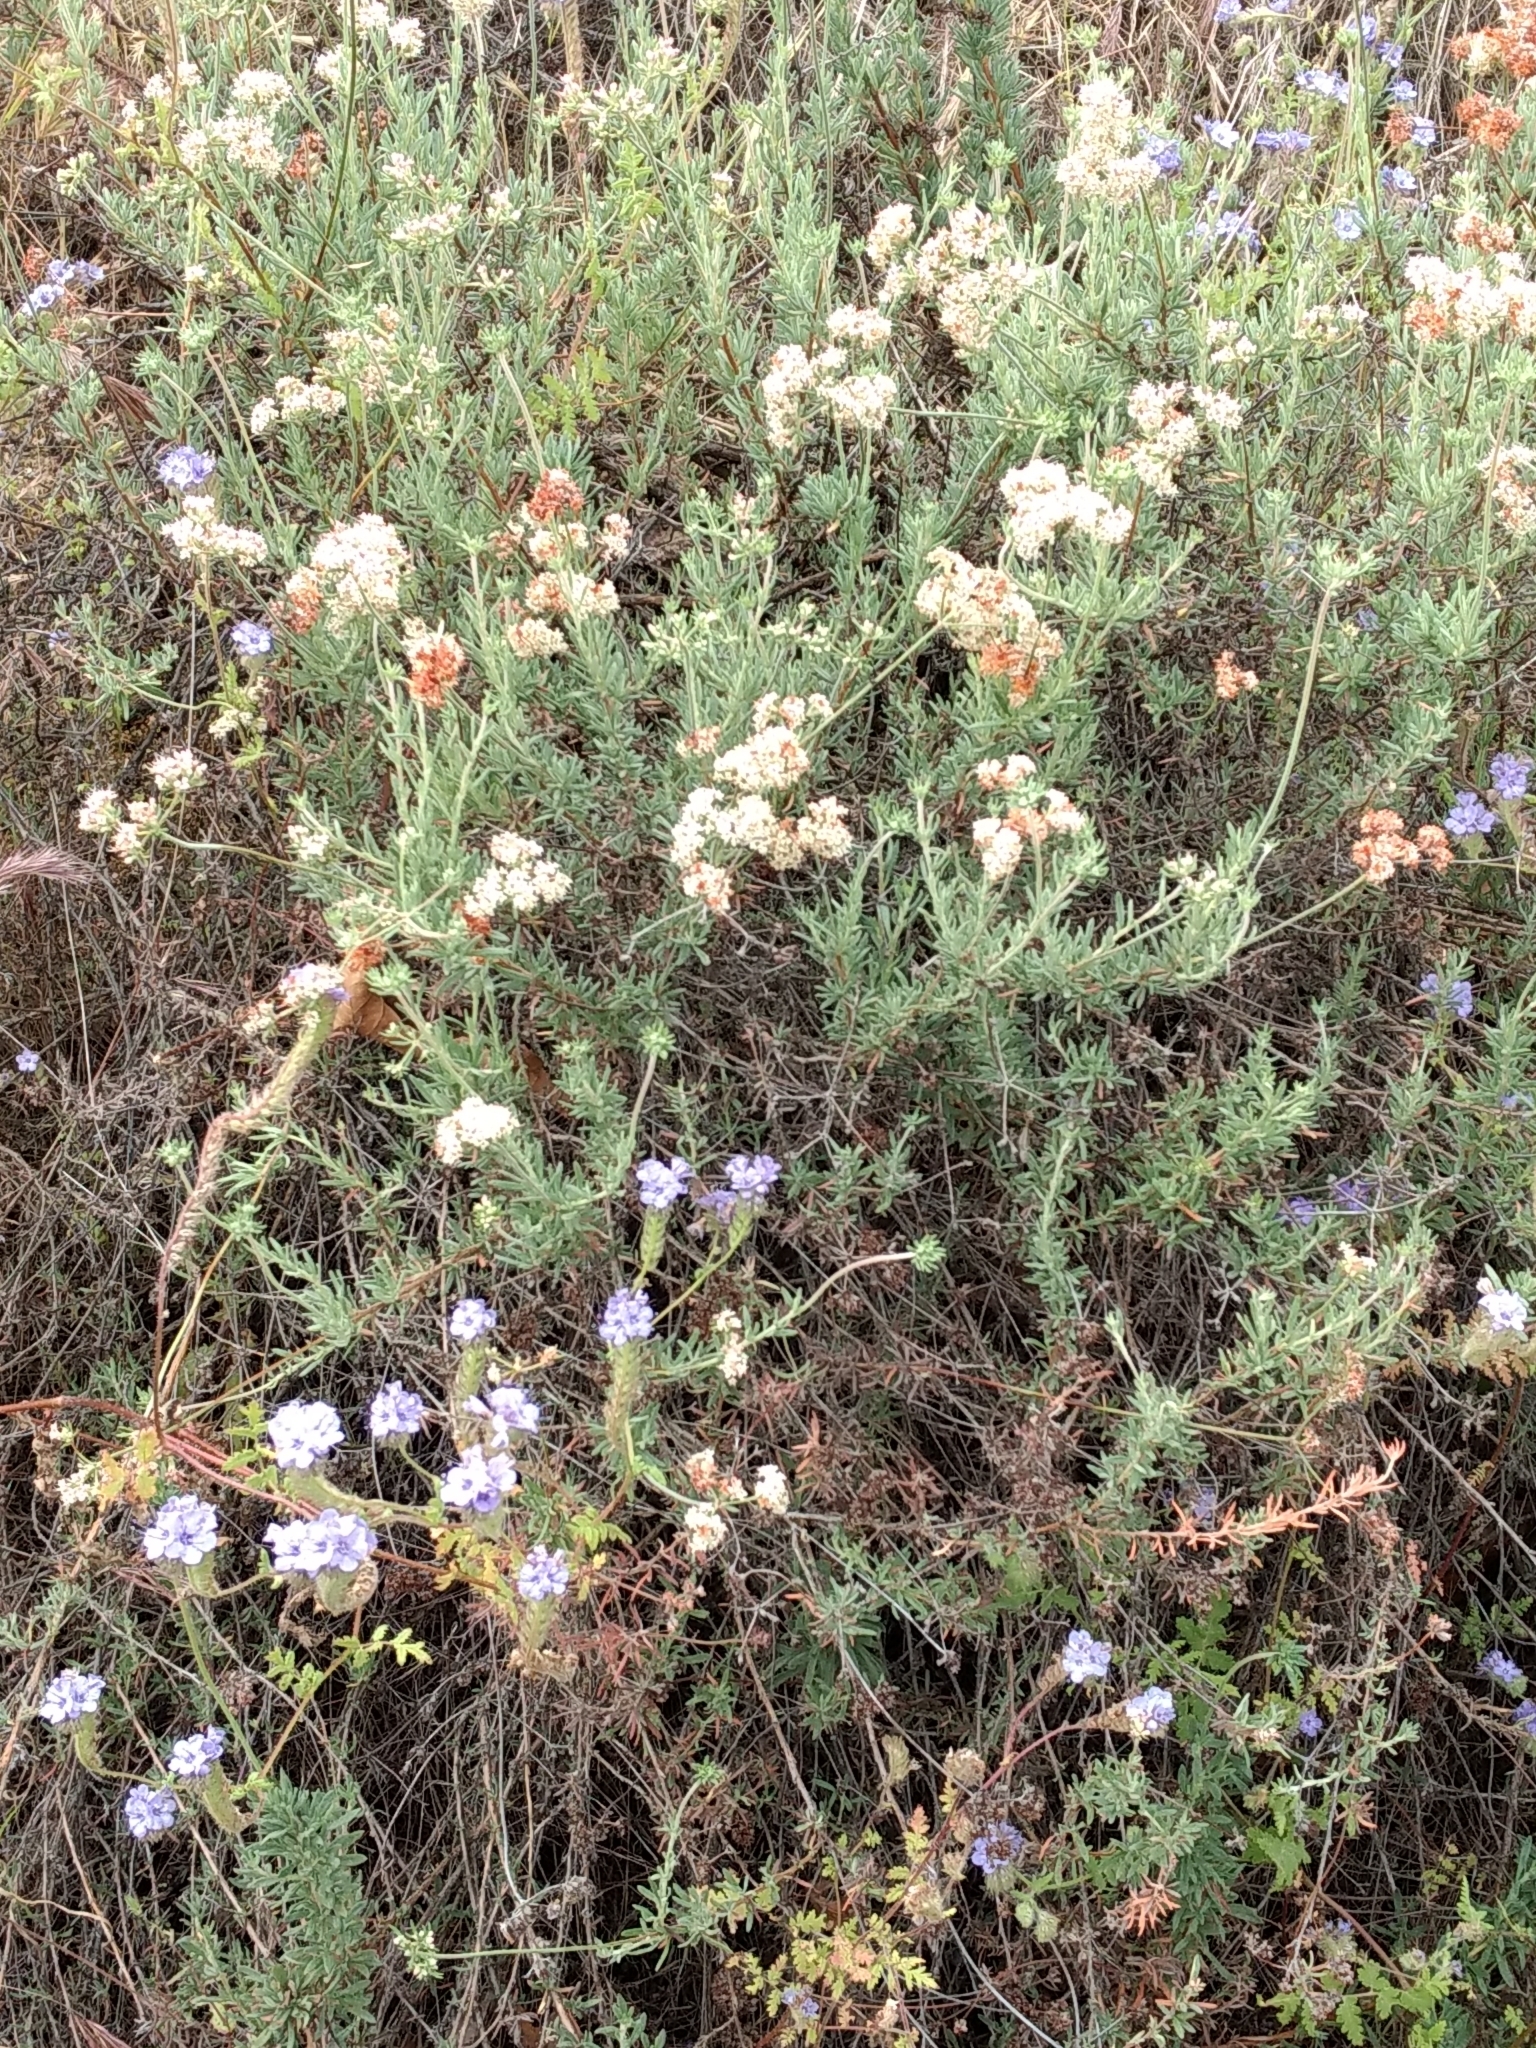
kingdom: Plantae
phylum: Tracheophyta
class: Magnoliopsida
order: Caryophyllales
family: Polygonaceae
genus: Eriogonum
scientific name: Eriogonum fasciculatum
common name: California wild buckwheat
